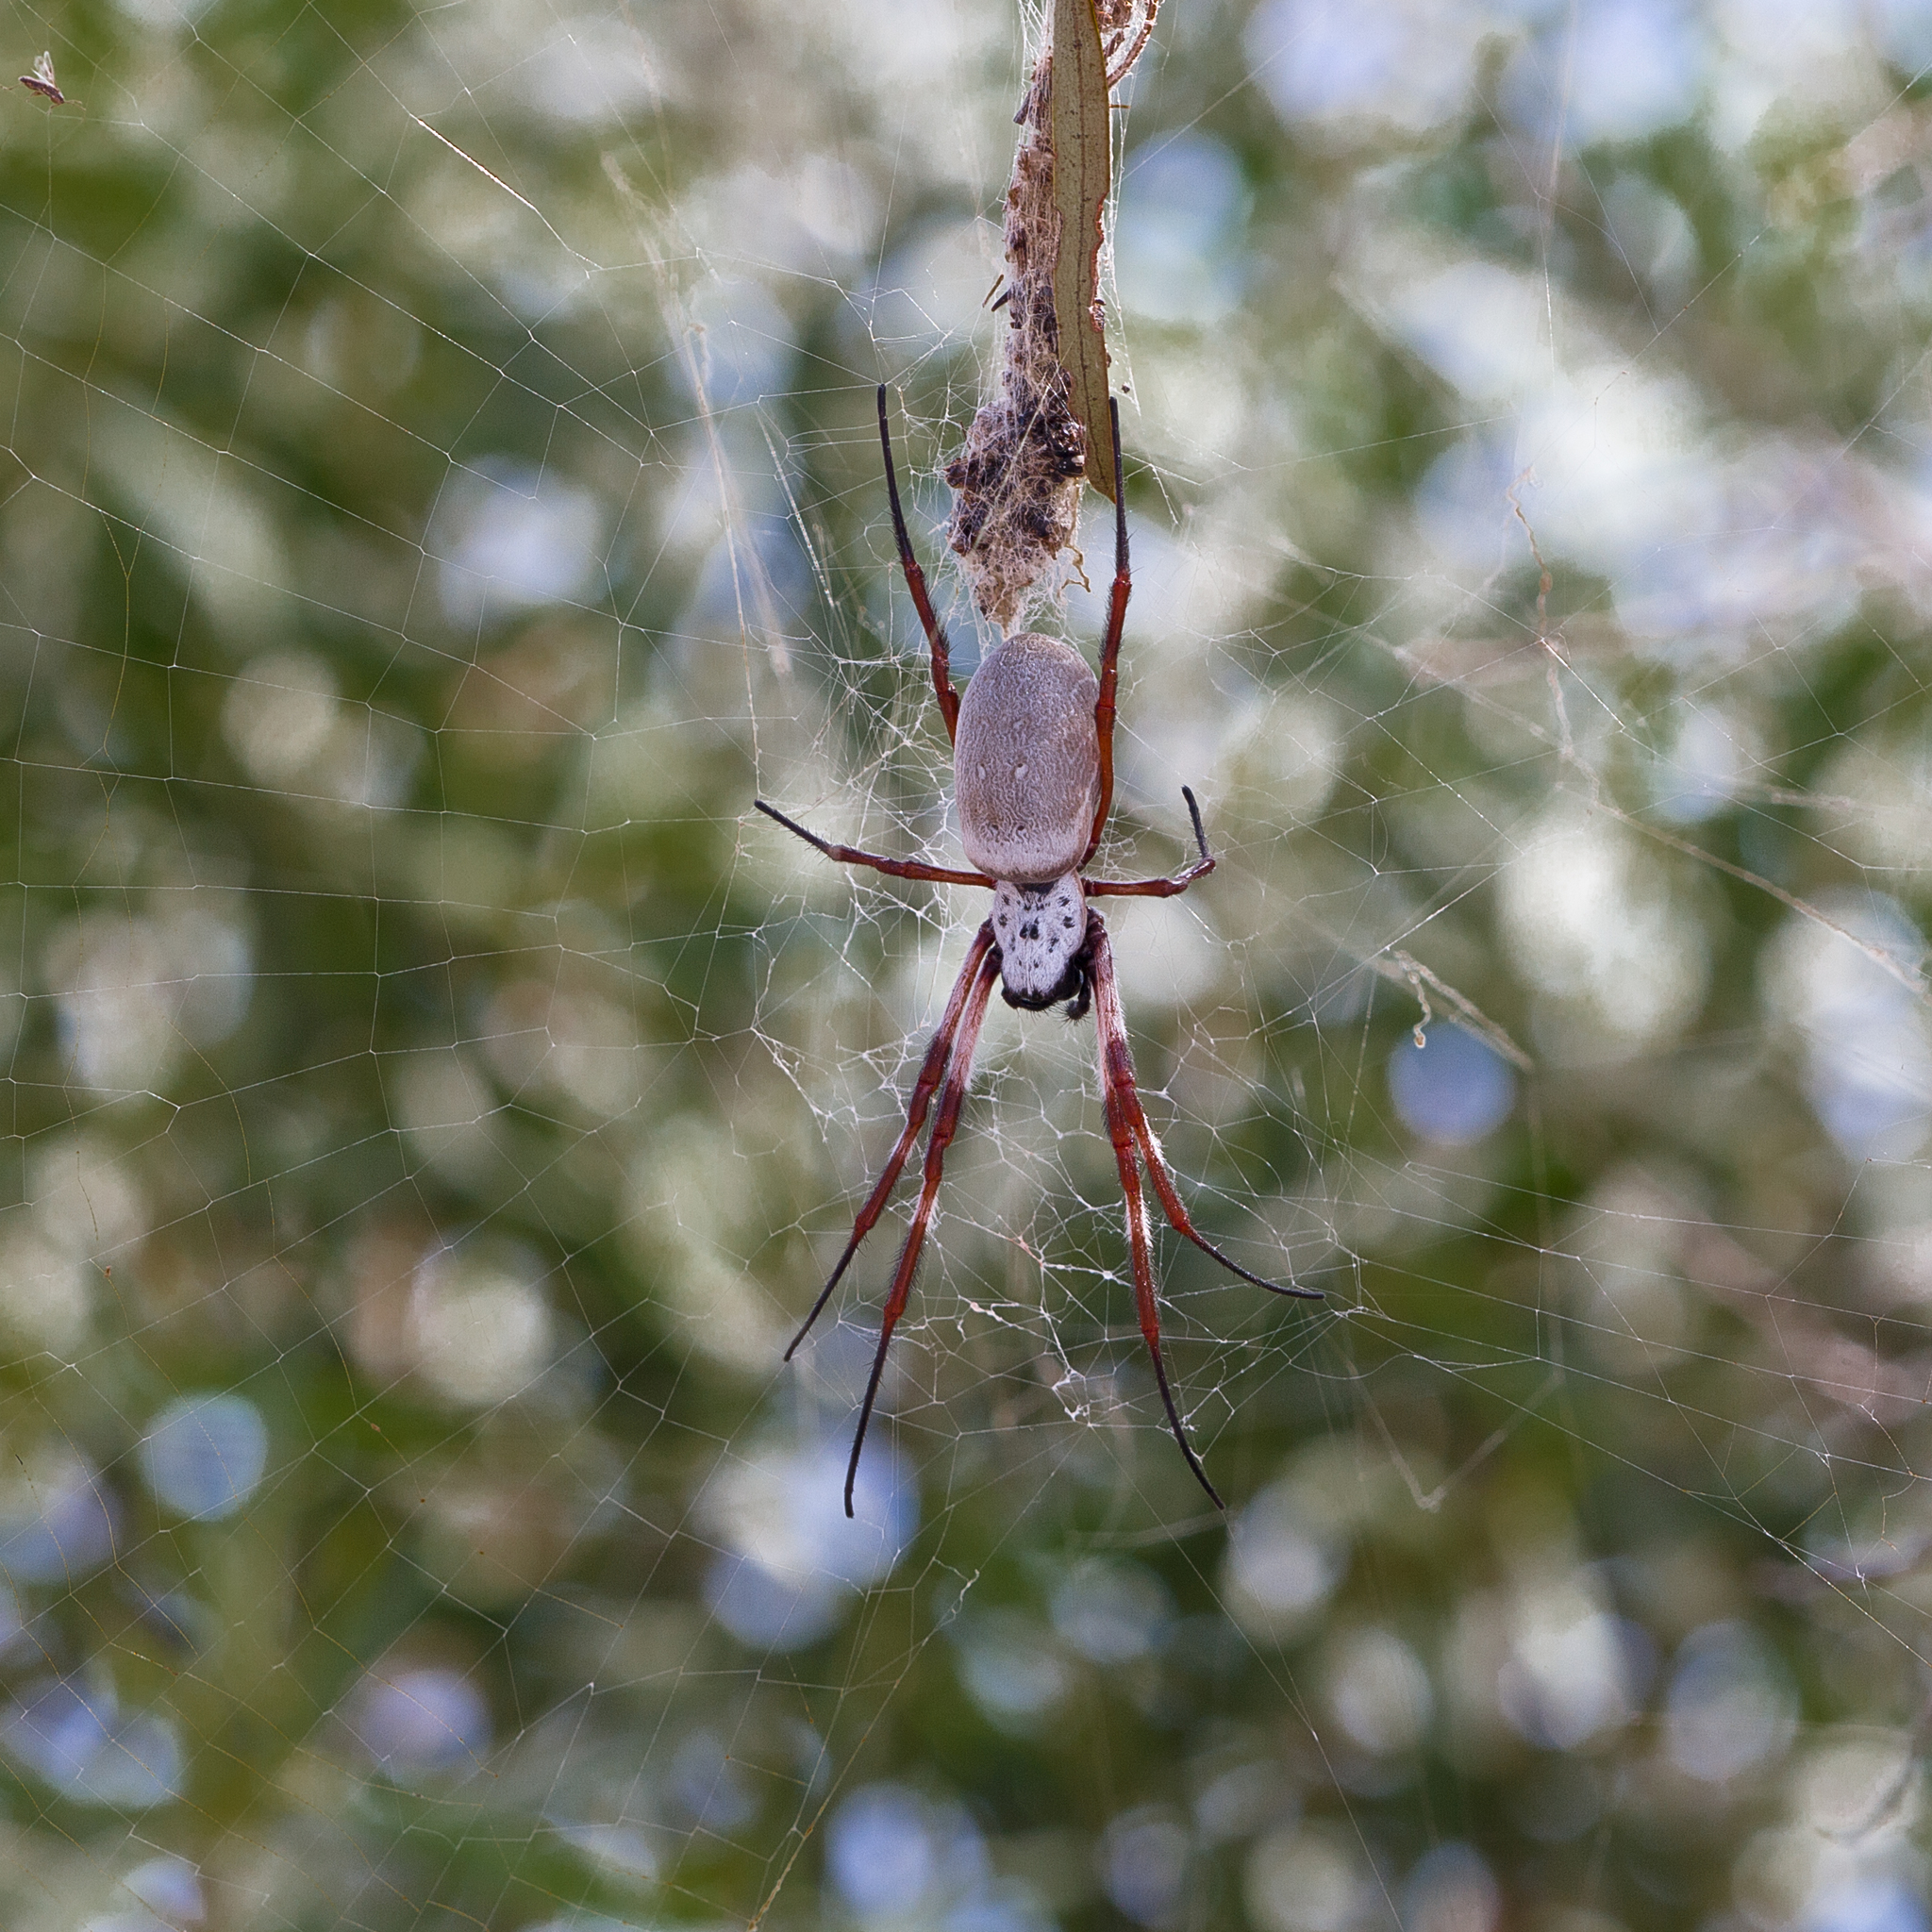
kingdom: Animalia
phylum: Arthropoda
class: Arachnida
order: Araneae
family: Araneidae
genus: Trichonephila
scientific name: Trichonephila edulis
